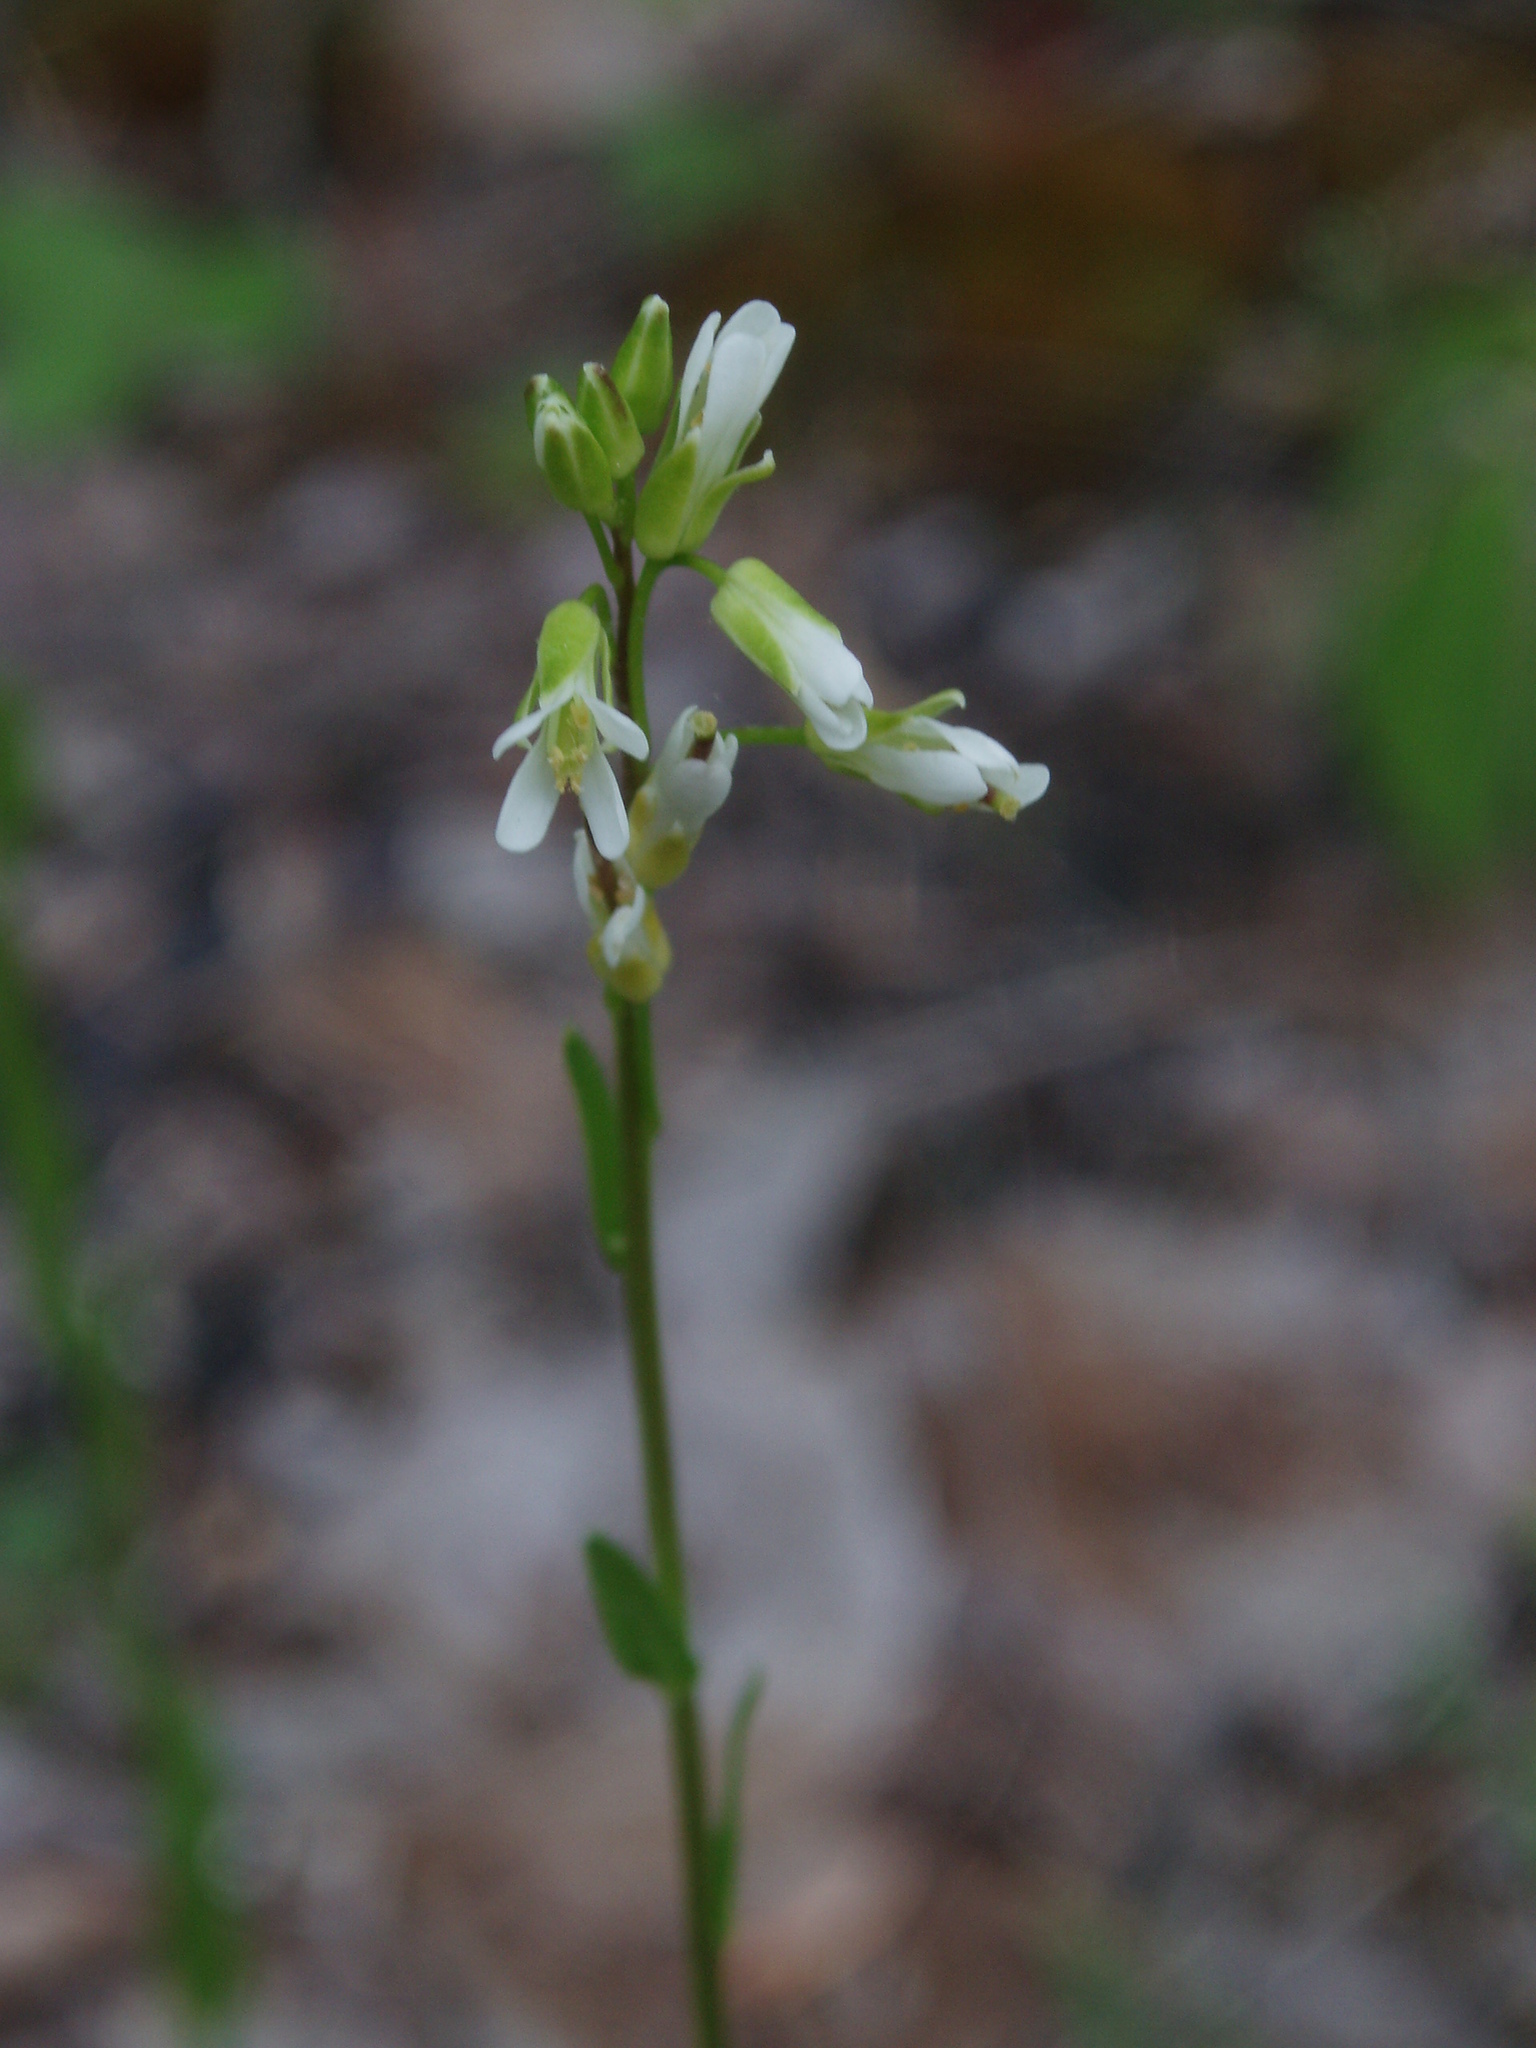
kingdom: Plantae
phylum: Tracheophyta
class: Magnoliopsida
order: Brassicales
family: Brassicaceae
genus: Arabis
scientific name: Arabis adpressipilis
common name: Soft-haired rockcress
